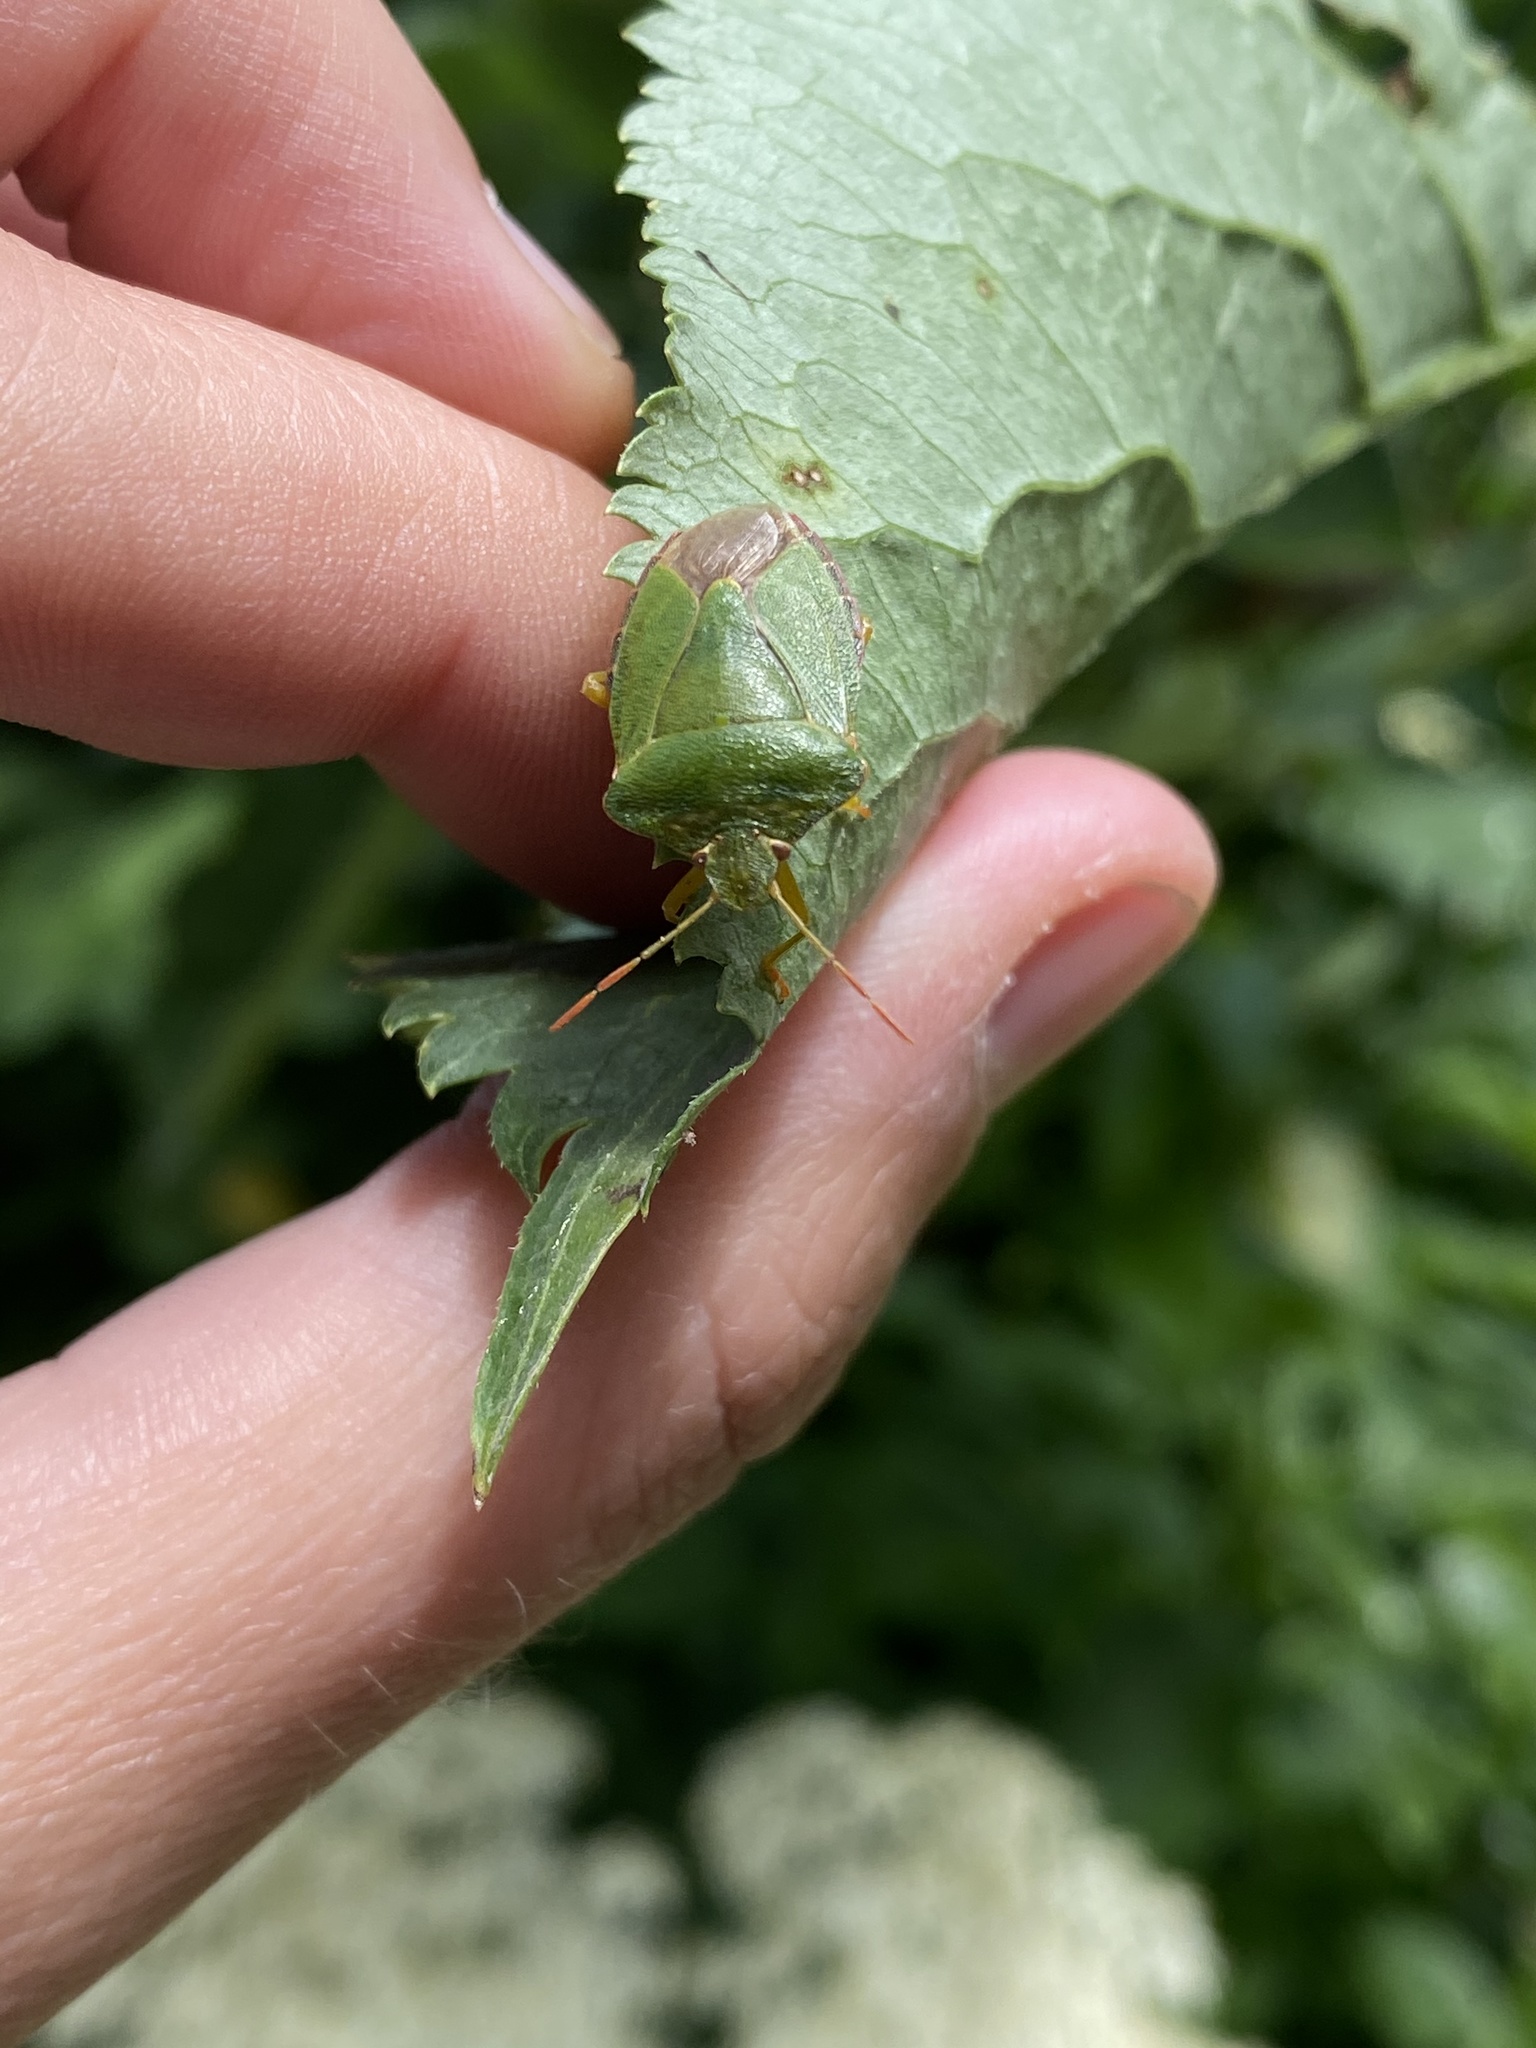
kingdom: Animalia
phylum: Arthropoda
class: Insecta
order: Hemiptera
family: Pentatomidae
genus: Palomena
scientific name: Palomena prasina
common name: Green shieldbug
